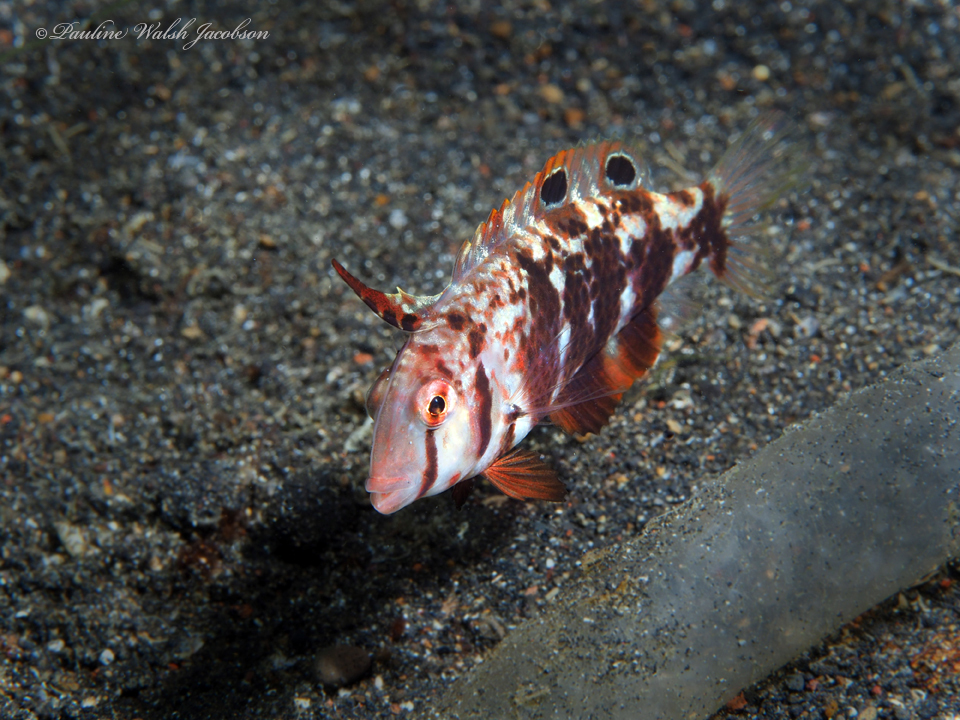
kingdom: Animalia
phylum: Chordata
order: Perciformes
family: Labridae
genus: Iniistius
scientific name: Iniistius dea
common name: Blackspot razorfish
